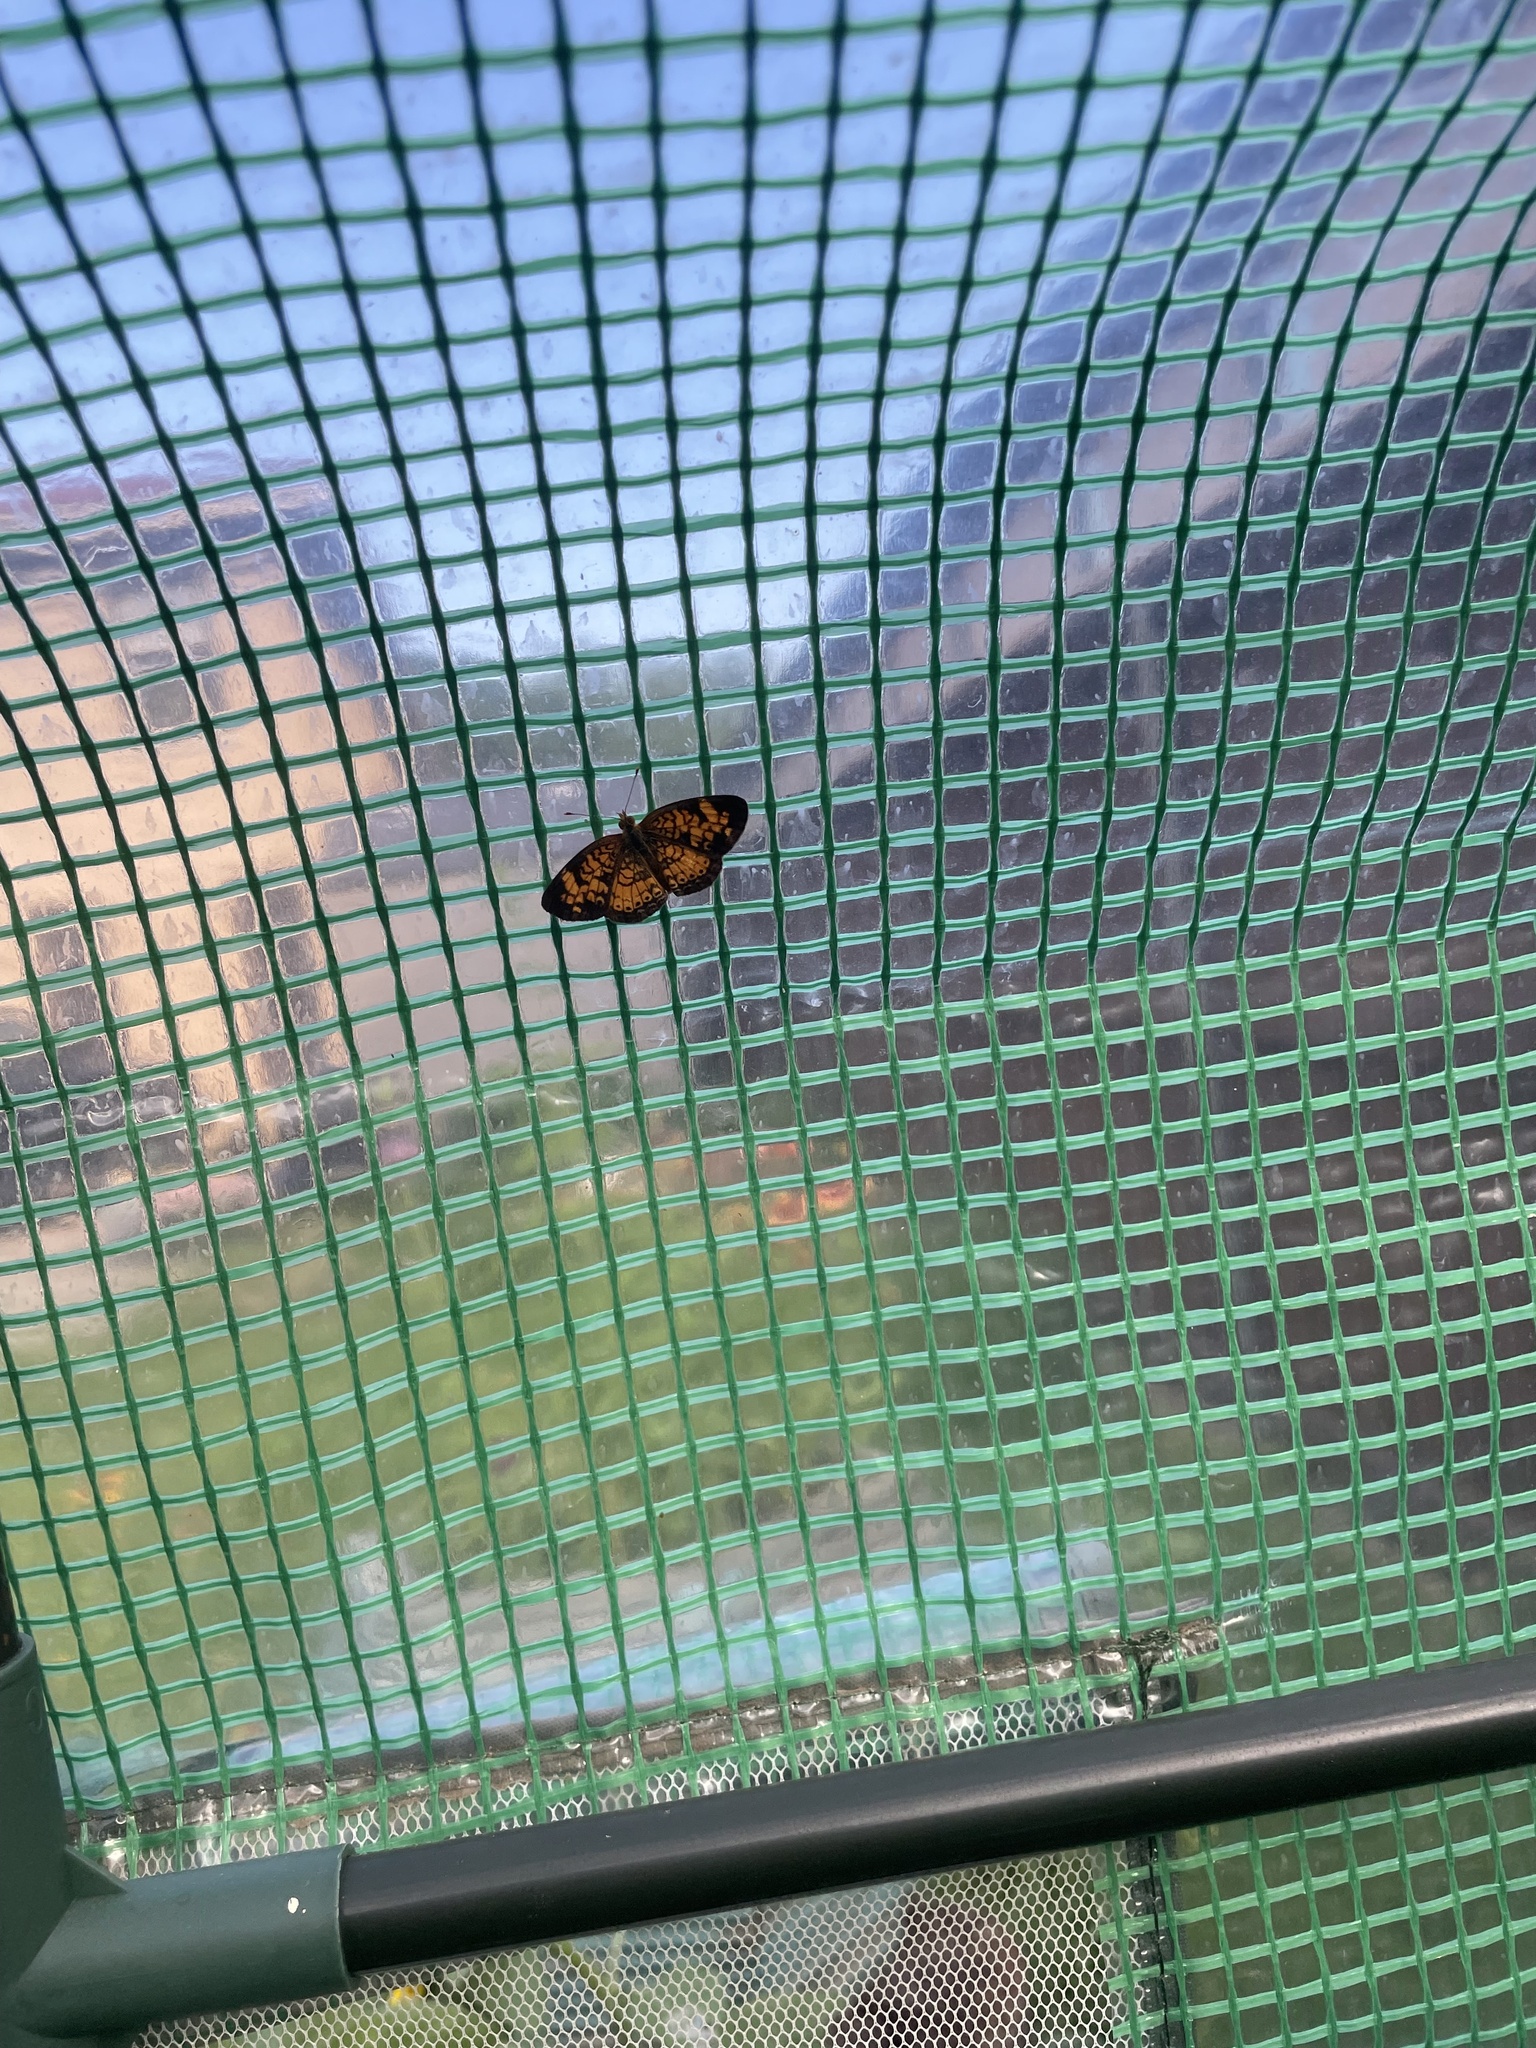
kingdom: Animalia
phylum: Arthropoda
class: Insecta
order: Lepidoptera
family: Nymphalidae
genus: Phyciodes
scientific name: Phyciodes tharos
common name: Pearl crescent
